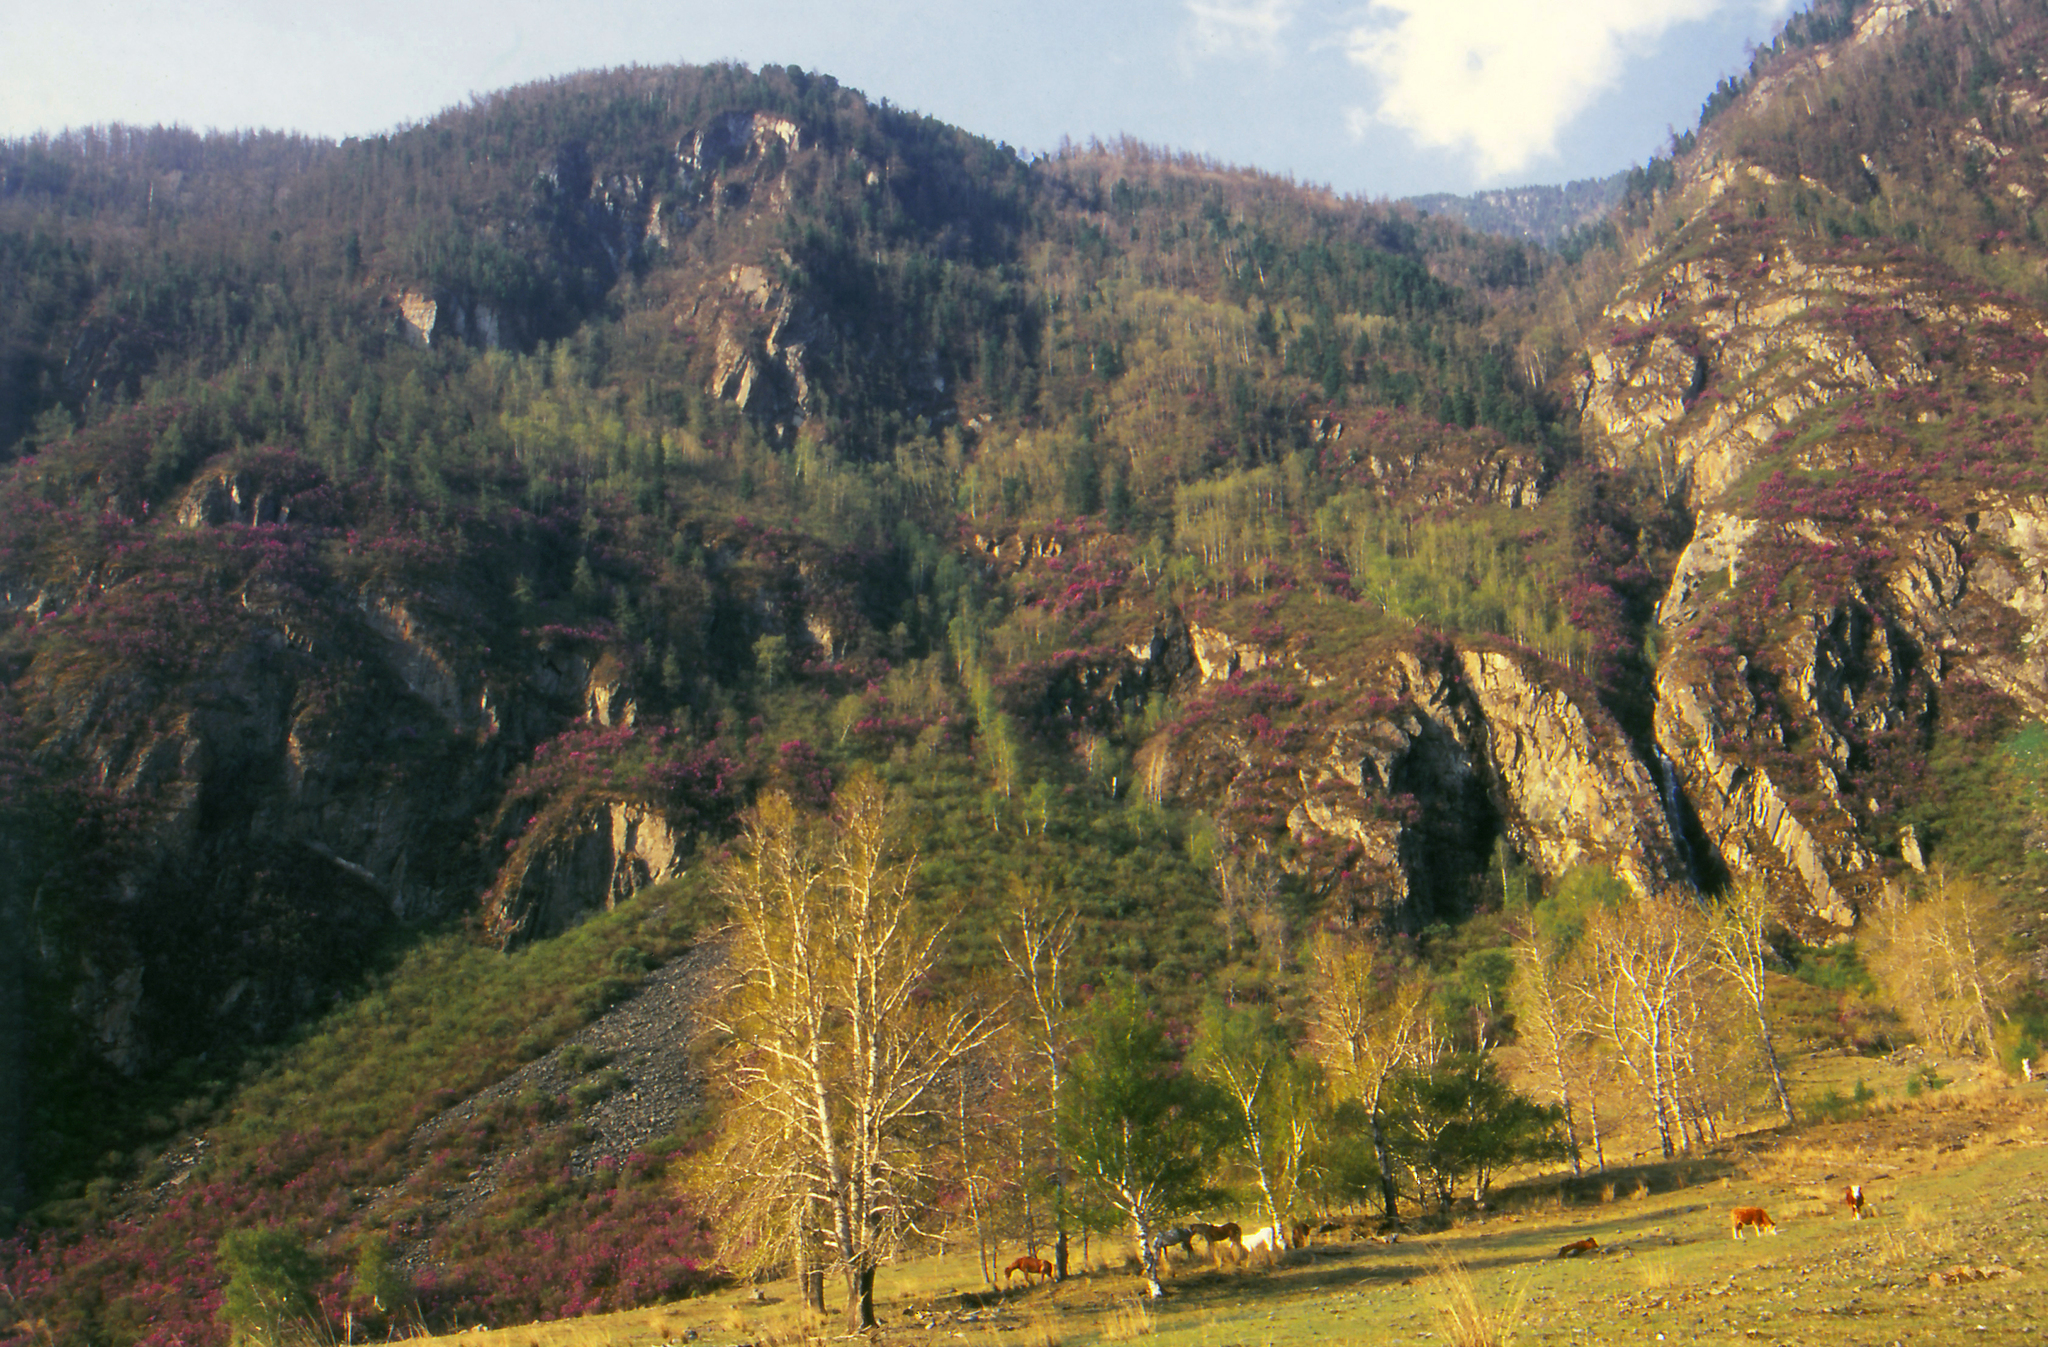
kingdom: Plantae
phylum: Tracheophyta
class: Magnoliopsida
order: Malpighiales
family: Salicaceae
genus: Populus
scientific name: Populus laurifolia
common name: Laurel-leaf poplar
